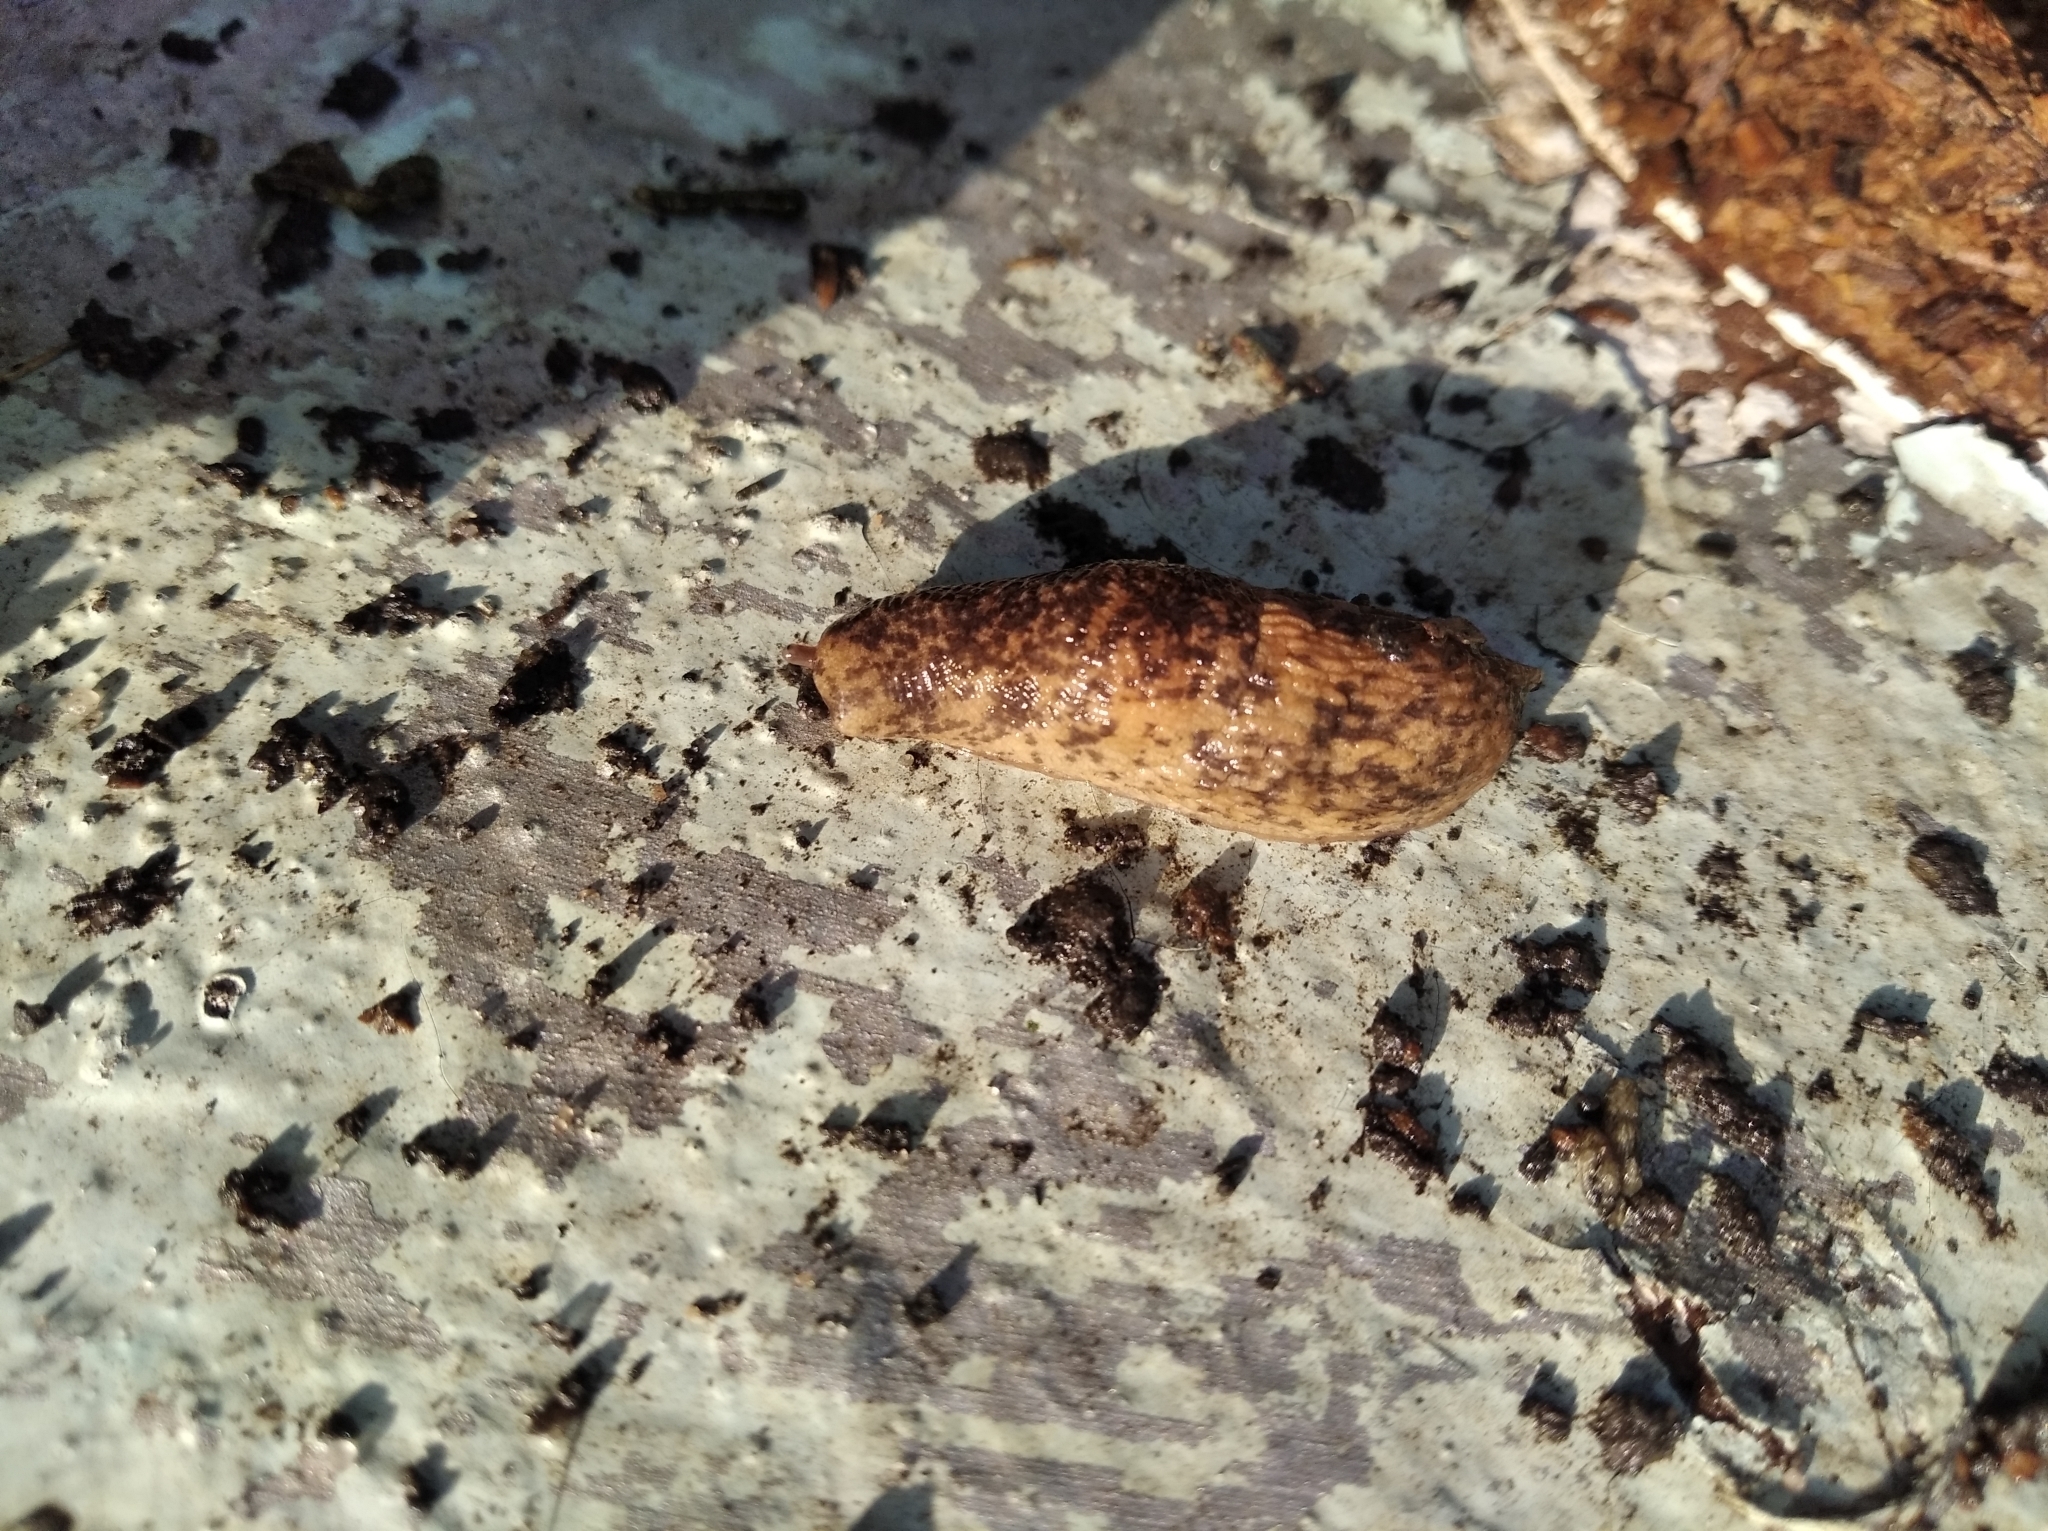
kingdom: Animalia
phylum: Mollusca
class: Gastropoda
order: Stylommatophora
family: Agriolimacidae
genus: Deroceras
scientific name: Deroceras reticulatum
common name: Gray field slug
